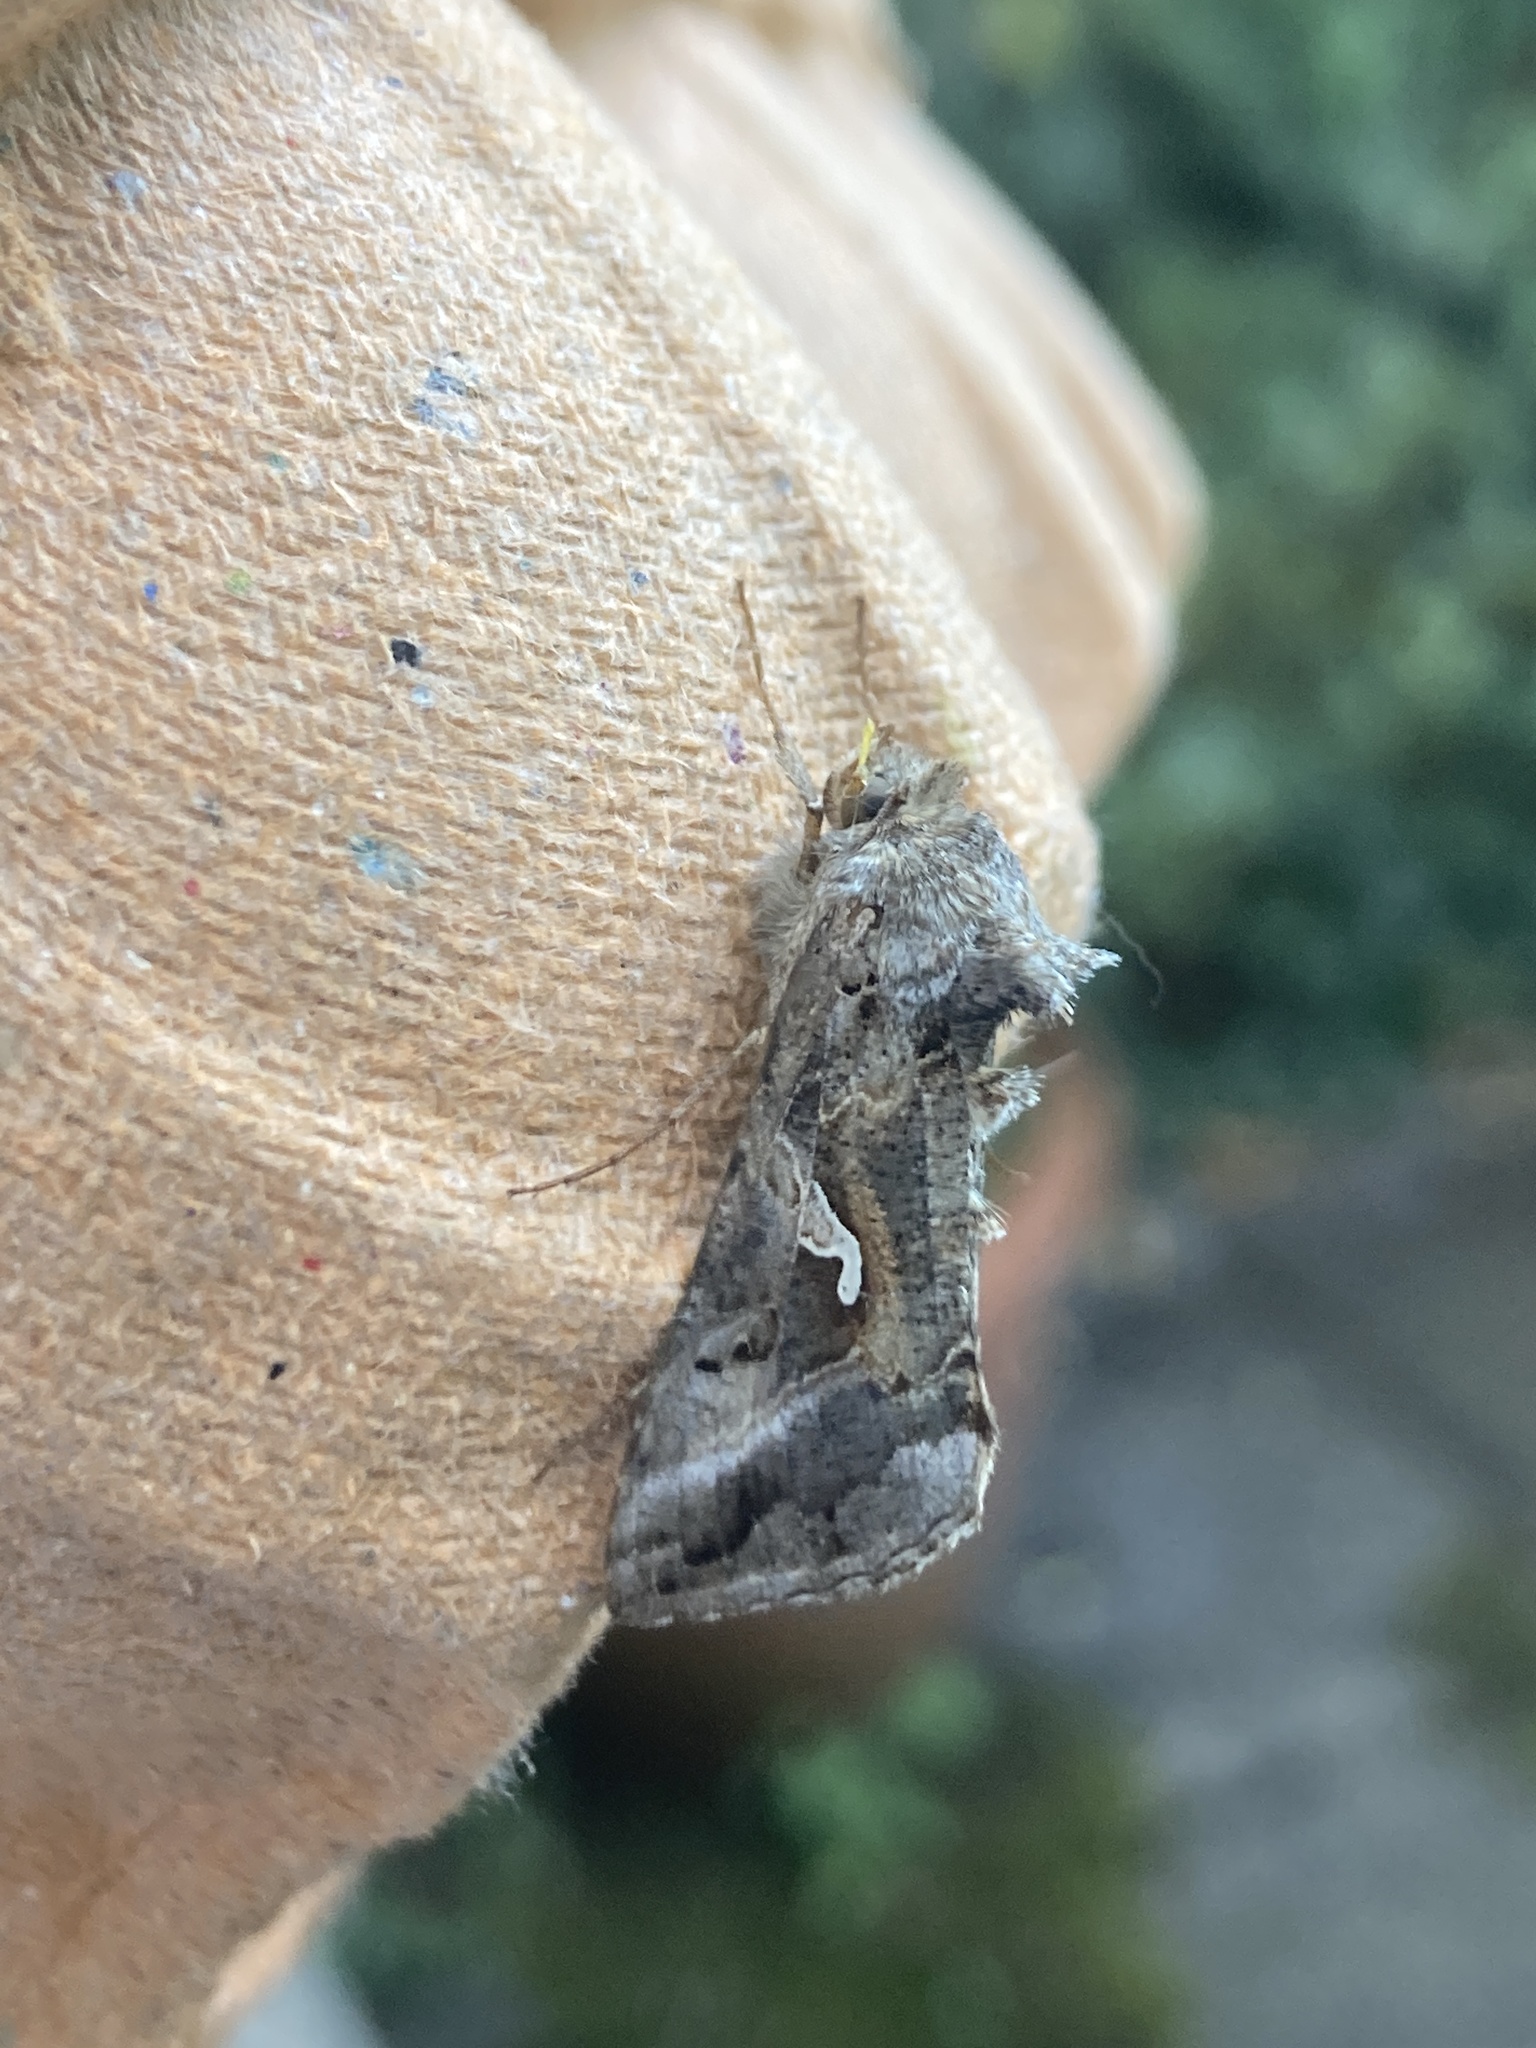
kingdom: Animalia
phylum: Arthropoda
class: Insecta
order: Lepidoptera
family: Noctuidae
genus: Autographa
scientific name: Autographa gamma
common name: Silver y
